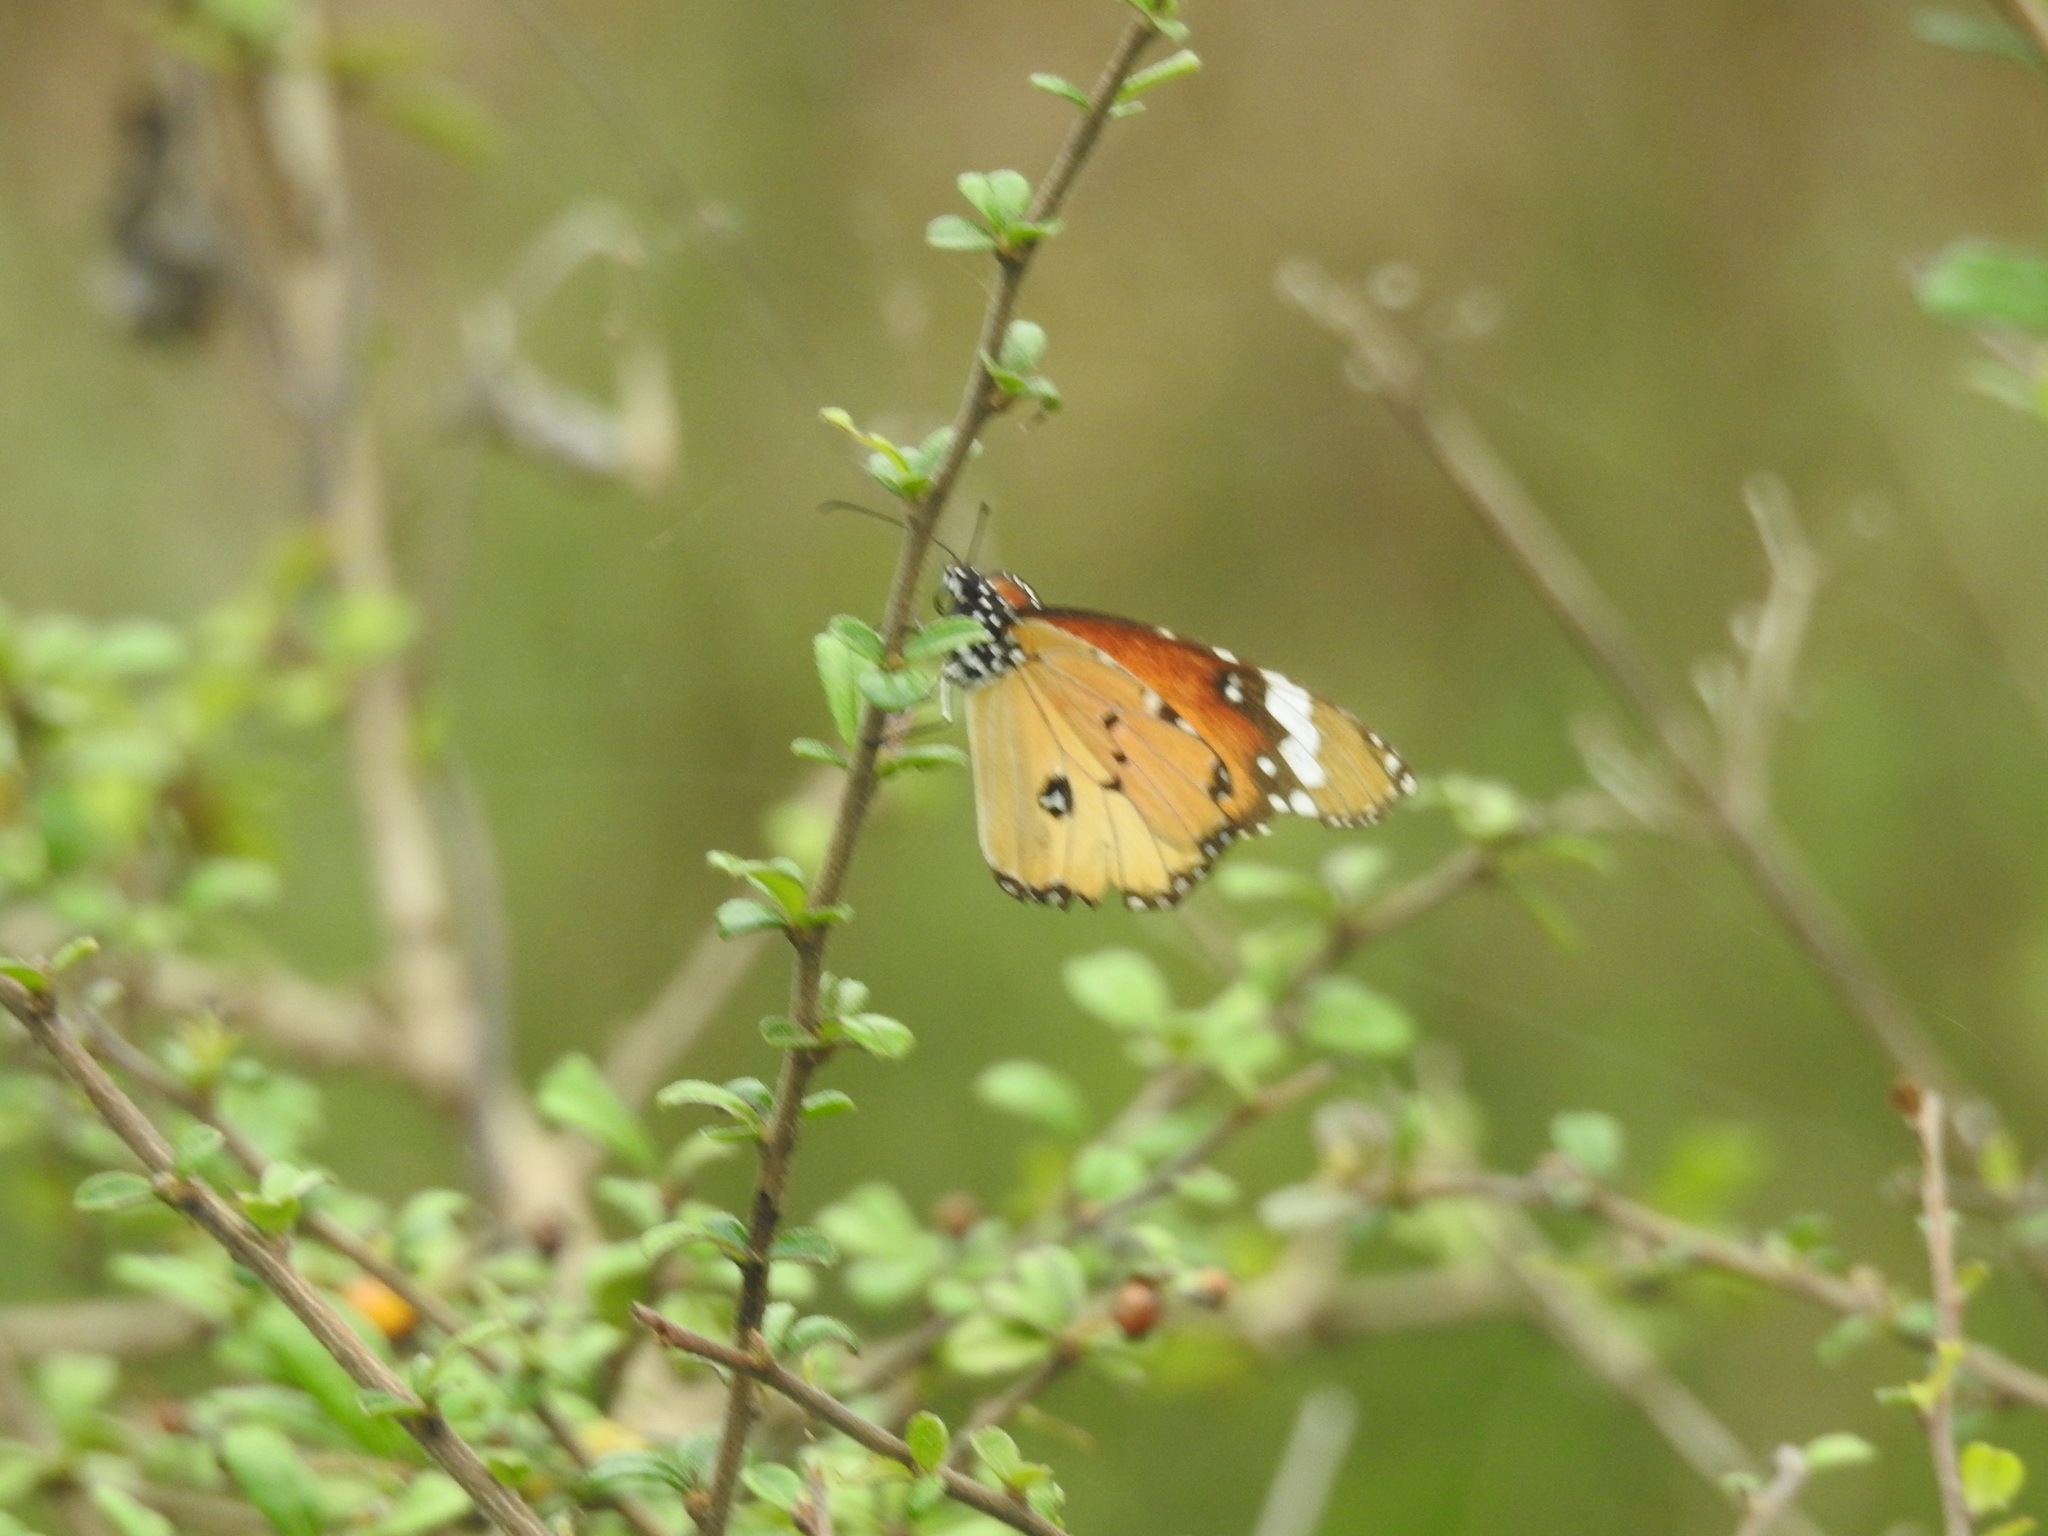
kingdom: Animalia
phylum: Arthropoda
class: Insecta
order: Lepidoptera
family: Nymphalidae
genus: Danaus
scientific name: Danaus chrysippus
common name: Plain tiger
